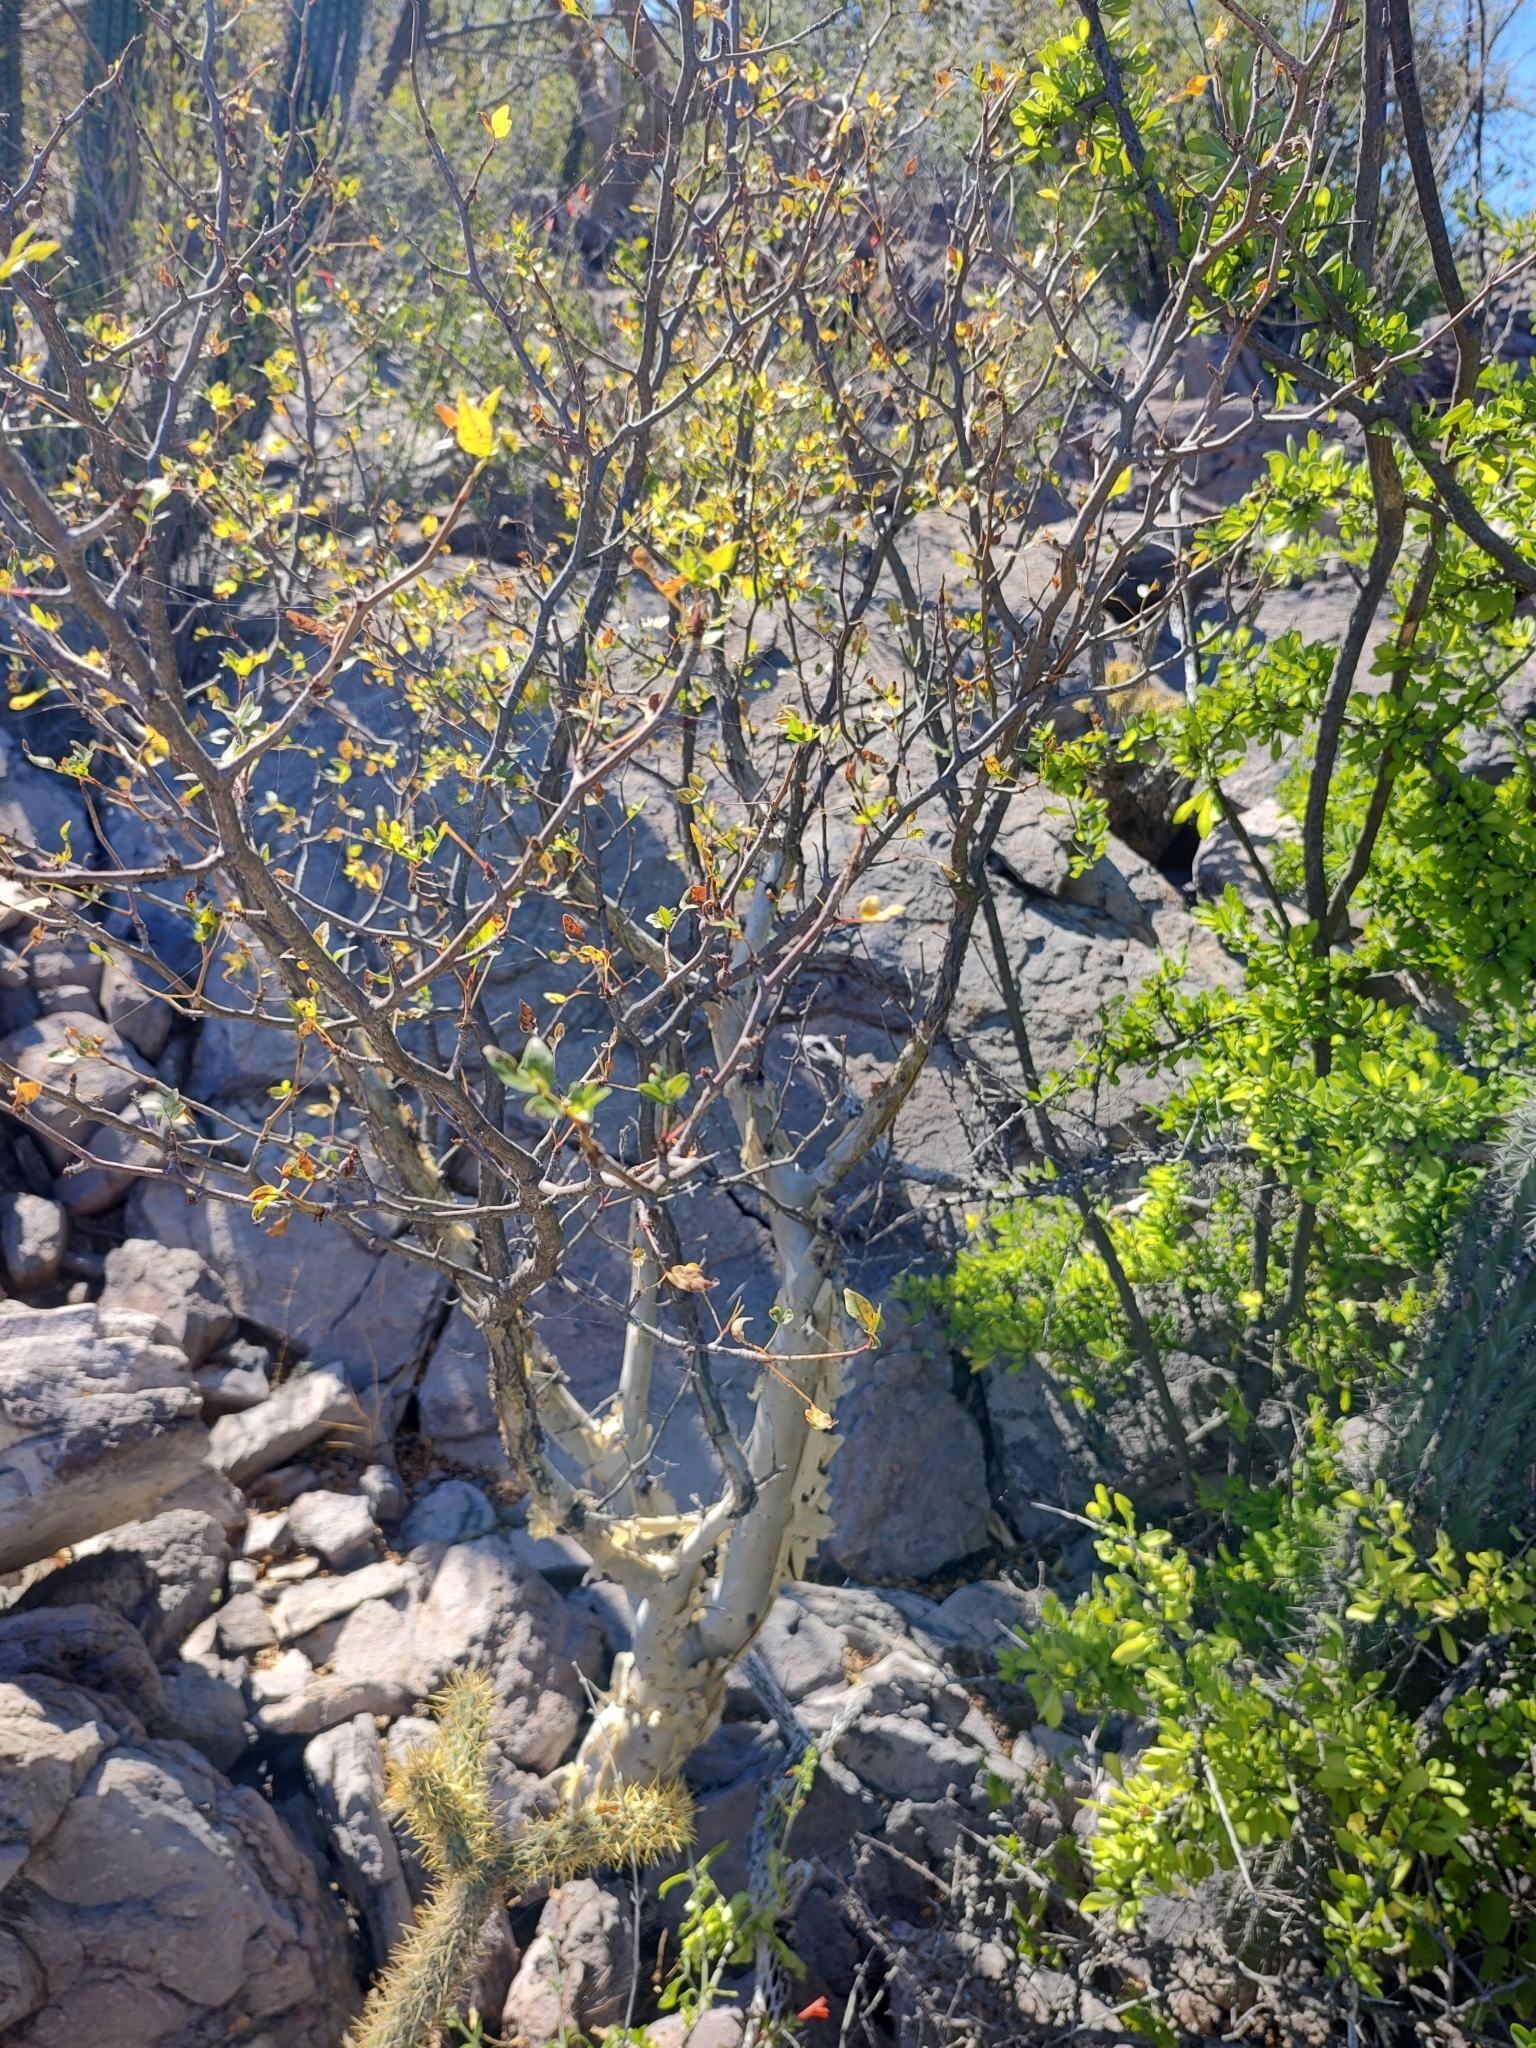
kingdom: Plantae
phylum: Tracheophyta
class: Magnoliopsida
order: Sapindales
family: Burseraceae
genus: Bursera
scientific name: Bursera fagaroides
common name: Elephant tree
